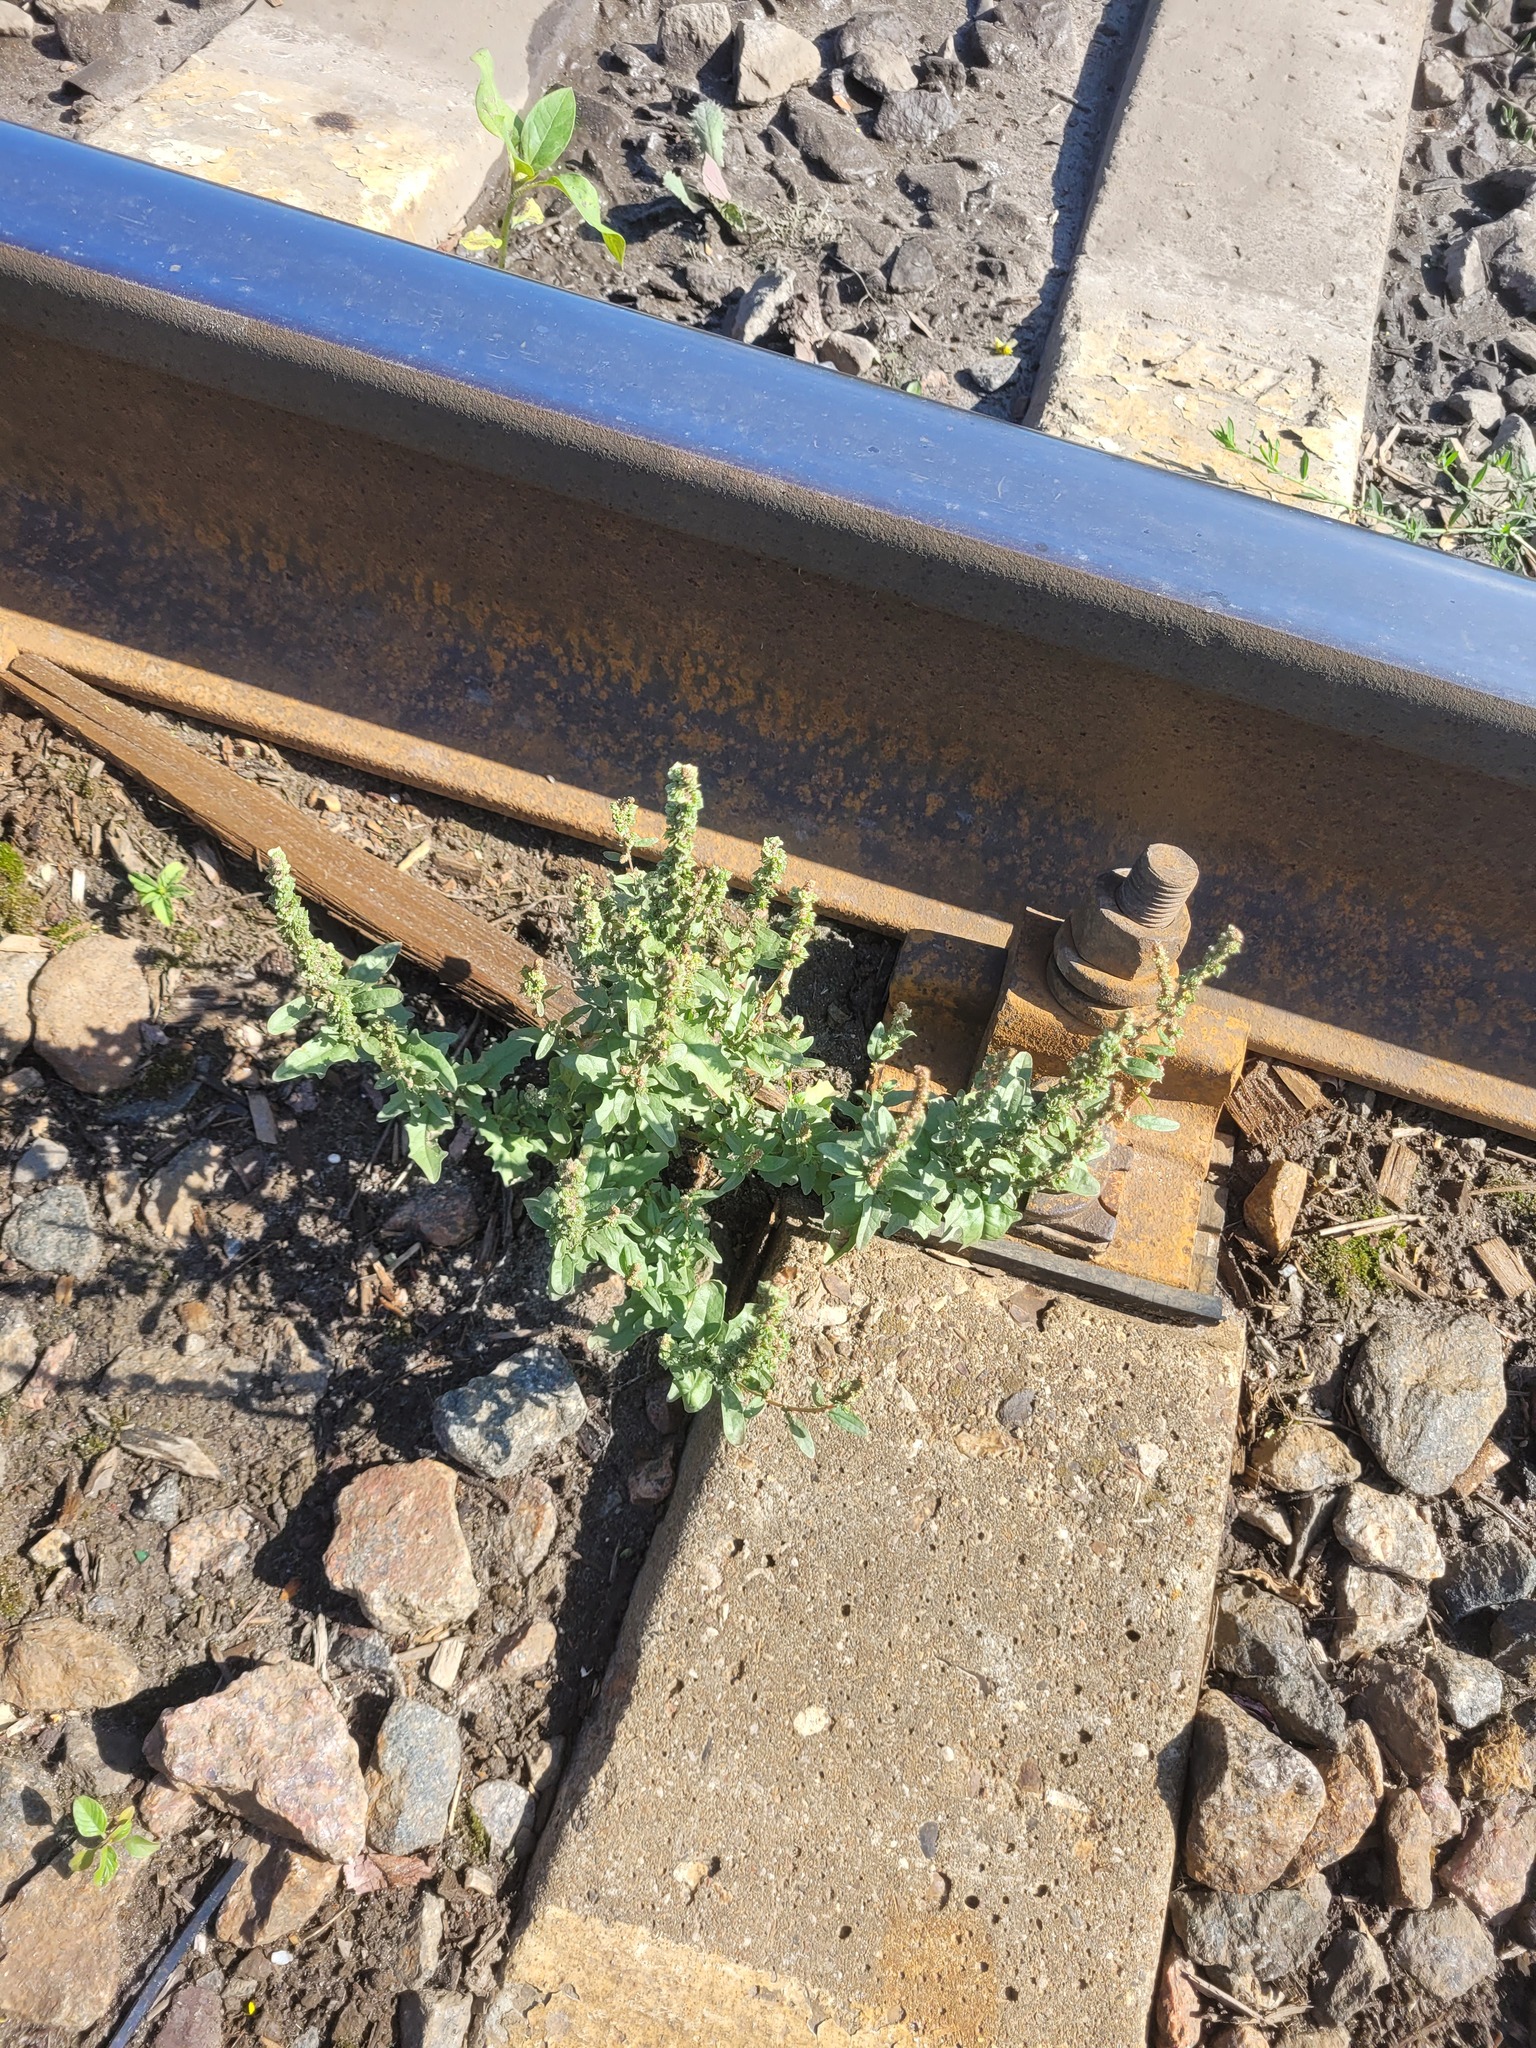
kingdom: Plantae
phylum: Tracheophyta
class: Magnoliopsida
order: Caryophyllales
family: Amaranthaceae
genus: Atriplex
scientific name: Atriplex tatarica
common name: Tatarian orache
